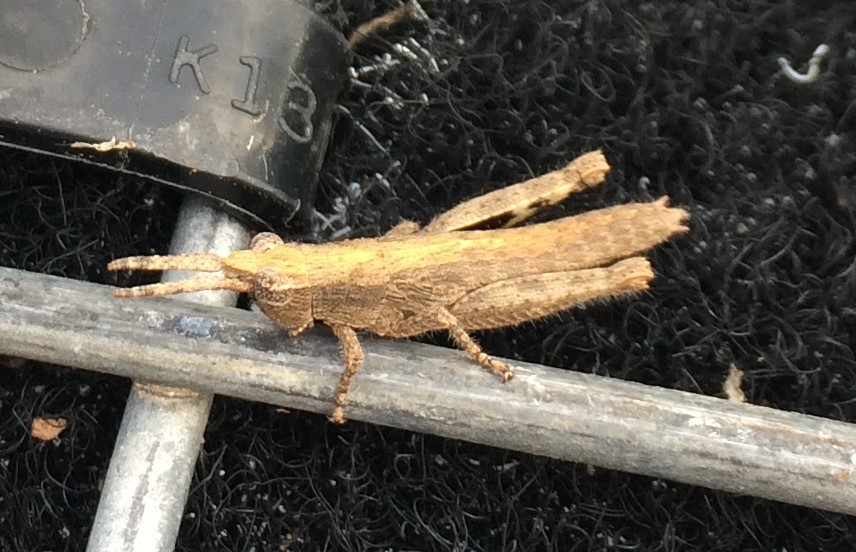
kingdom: Animalia
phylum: Arthropoda
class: Insecta
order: Orthoptera
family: Acrididae
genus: Coryphistes
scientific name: Coryphistes ruricola
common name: Bark-mimicking grasshopper
